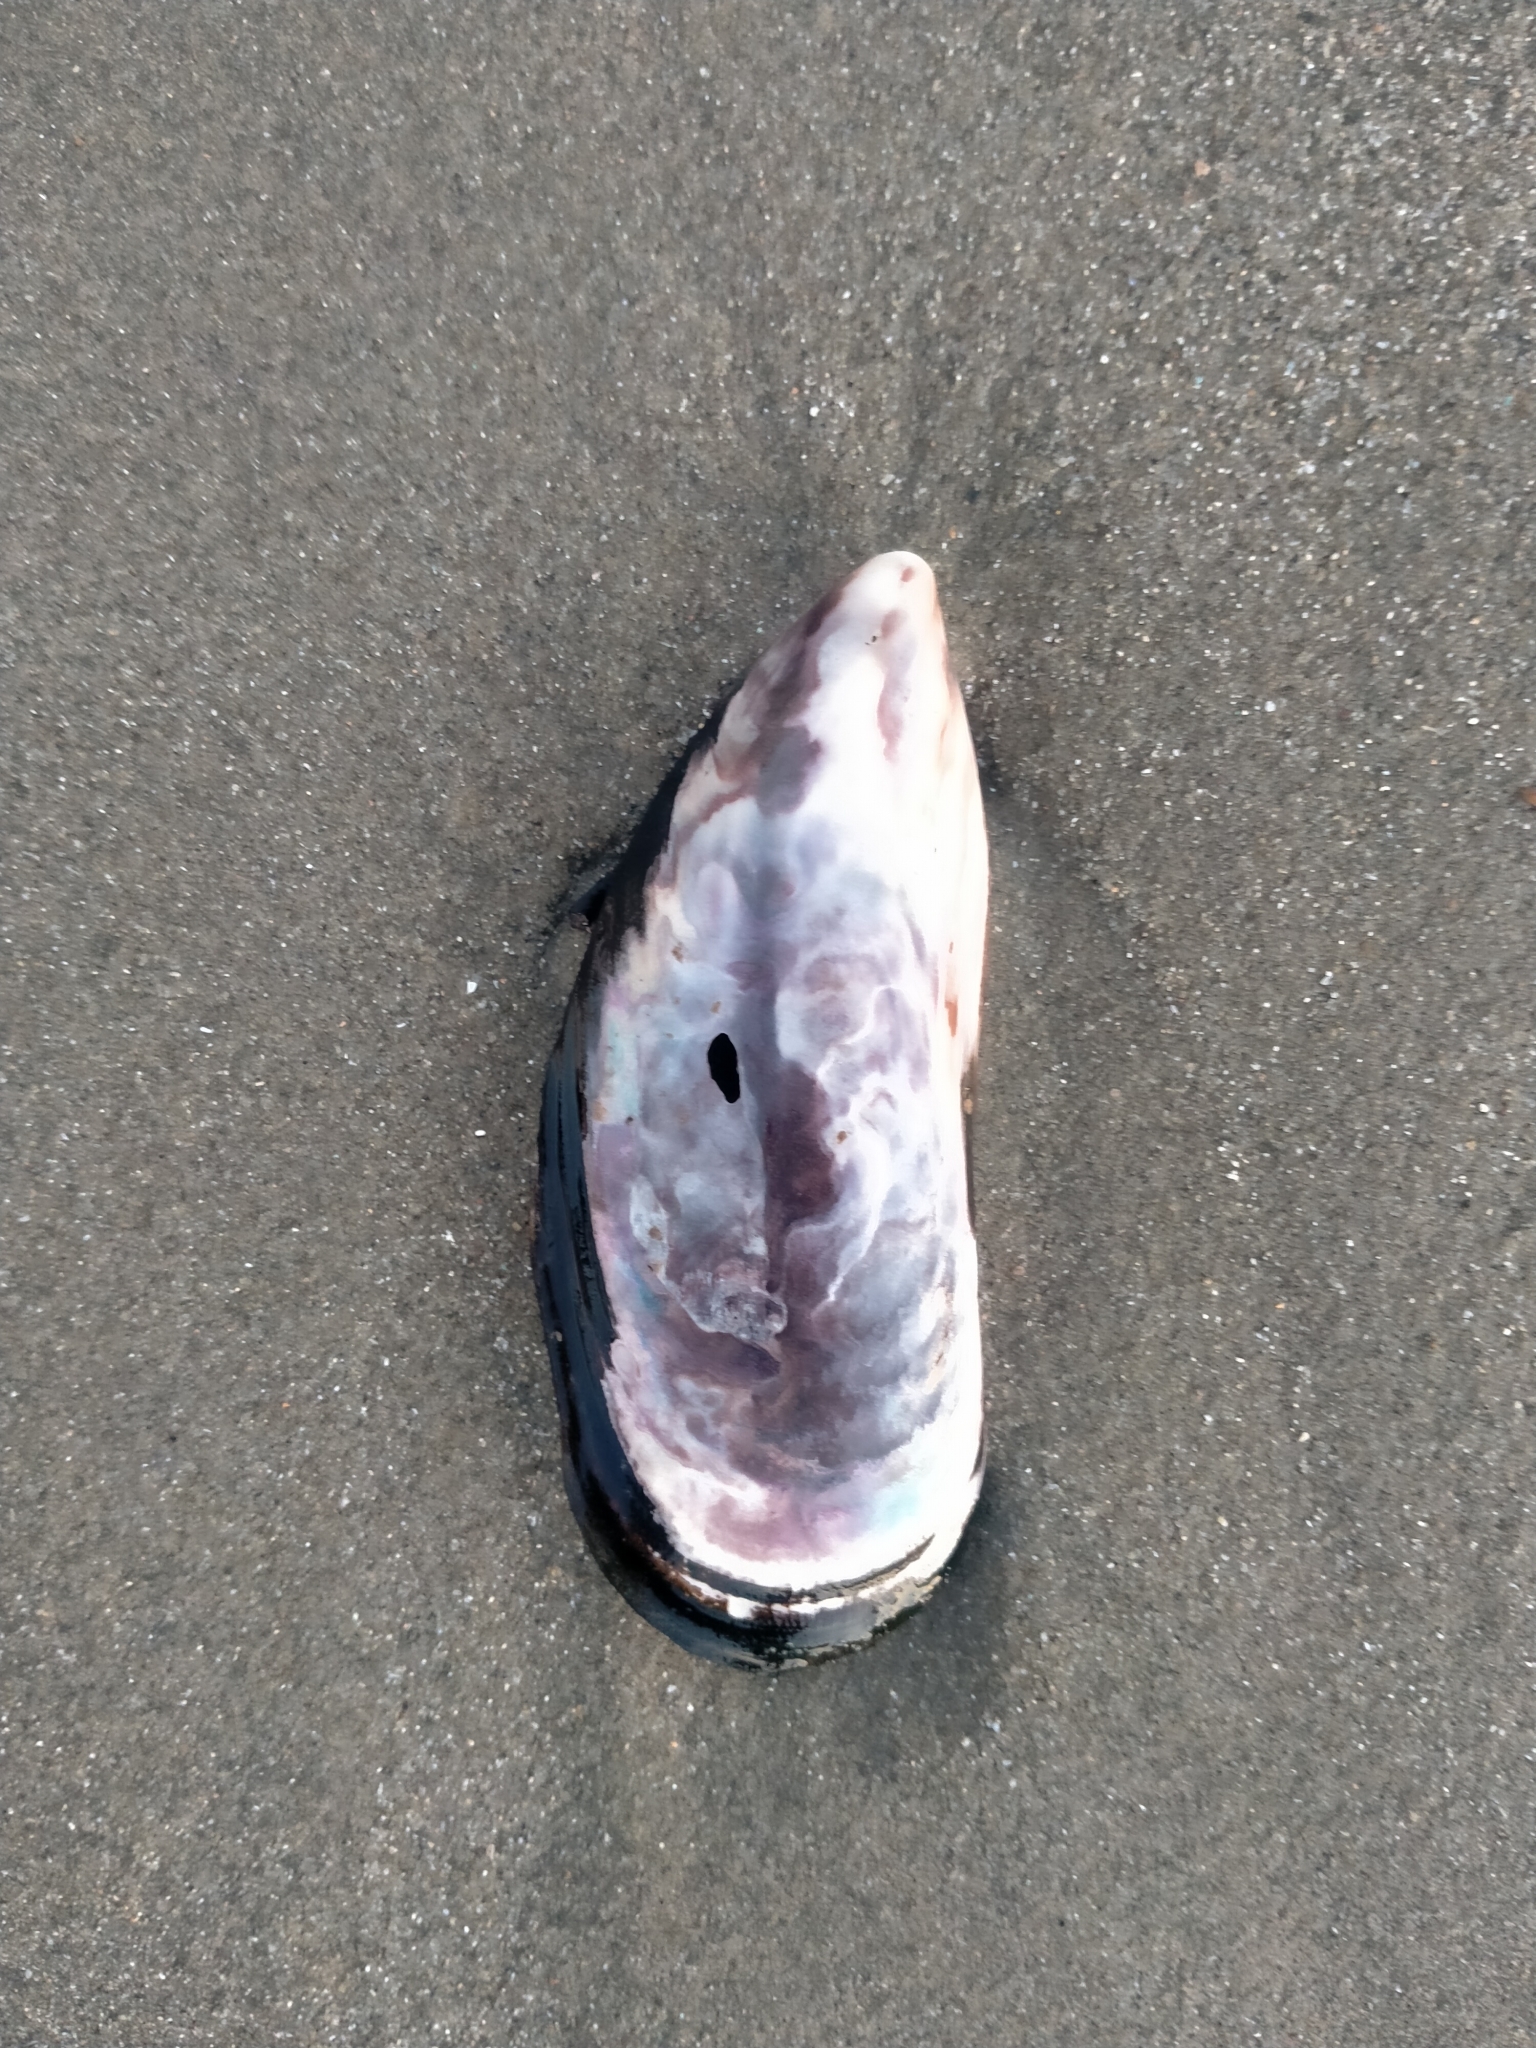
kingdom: Animalia
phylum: Mollusca
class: Bivalvia
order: Mytilida
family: Mytilidae
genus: Perna
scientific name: Perna canaliculus
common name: New zealand greenshelltm
